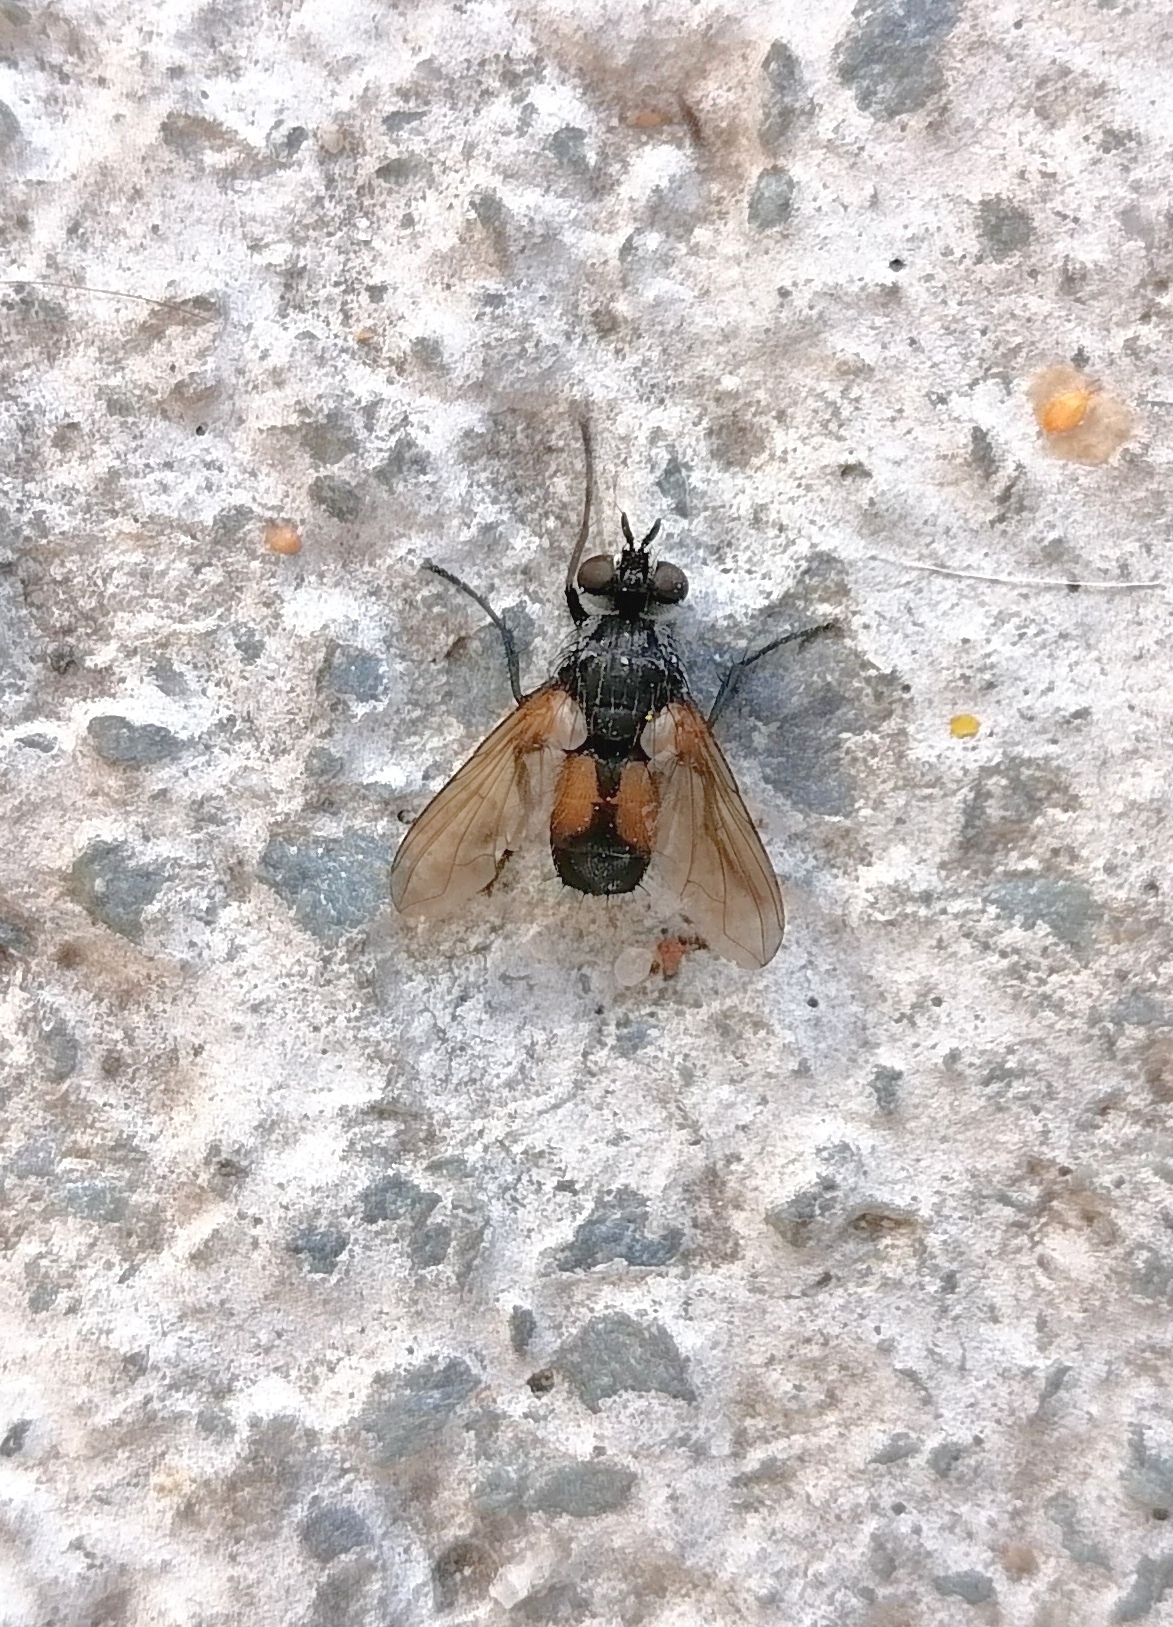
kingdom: Animalia
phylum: Arthropoda
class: Insecta
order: Diptera
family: Tachinidae
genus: Hemyda
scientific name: Hemyda vittata
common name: Tachinid fly
